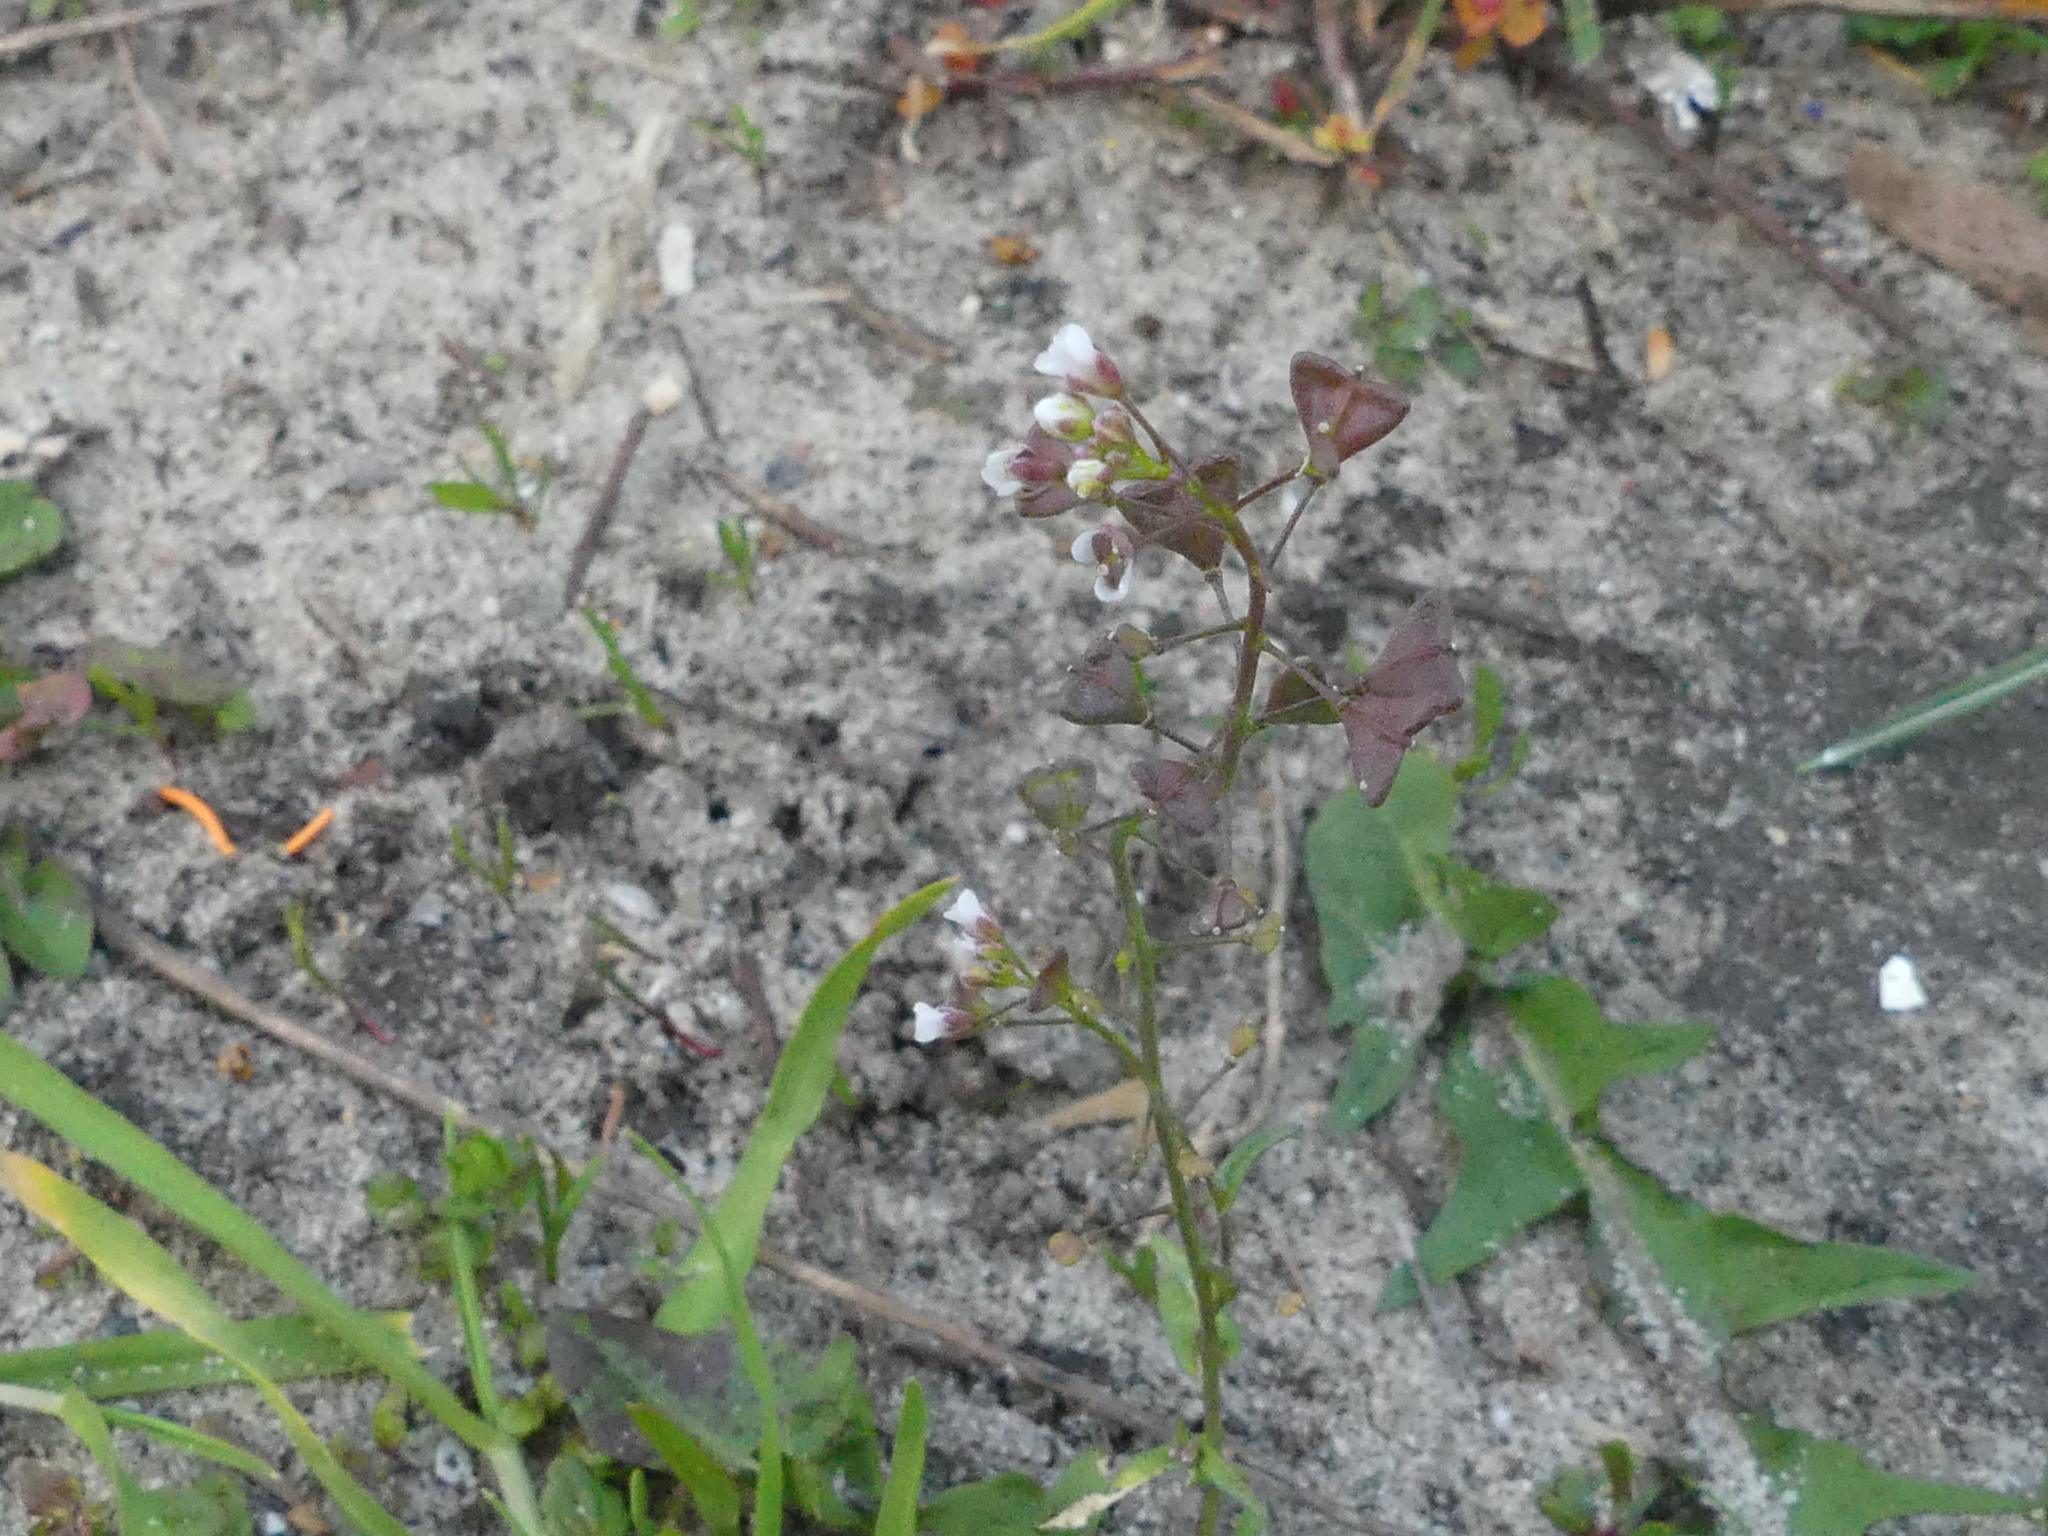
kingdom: Plantae
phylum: Tracheophyta
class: Magnoliopsida
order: Brassicales
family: Brassicaceae
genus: Capsella
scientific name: Capsella bursa-pastoris
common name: Shepherd's purse
